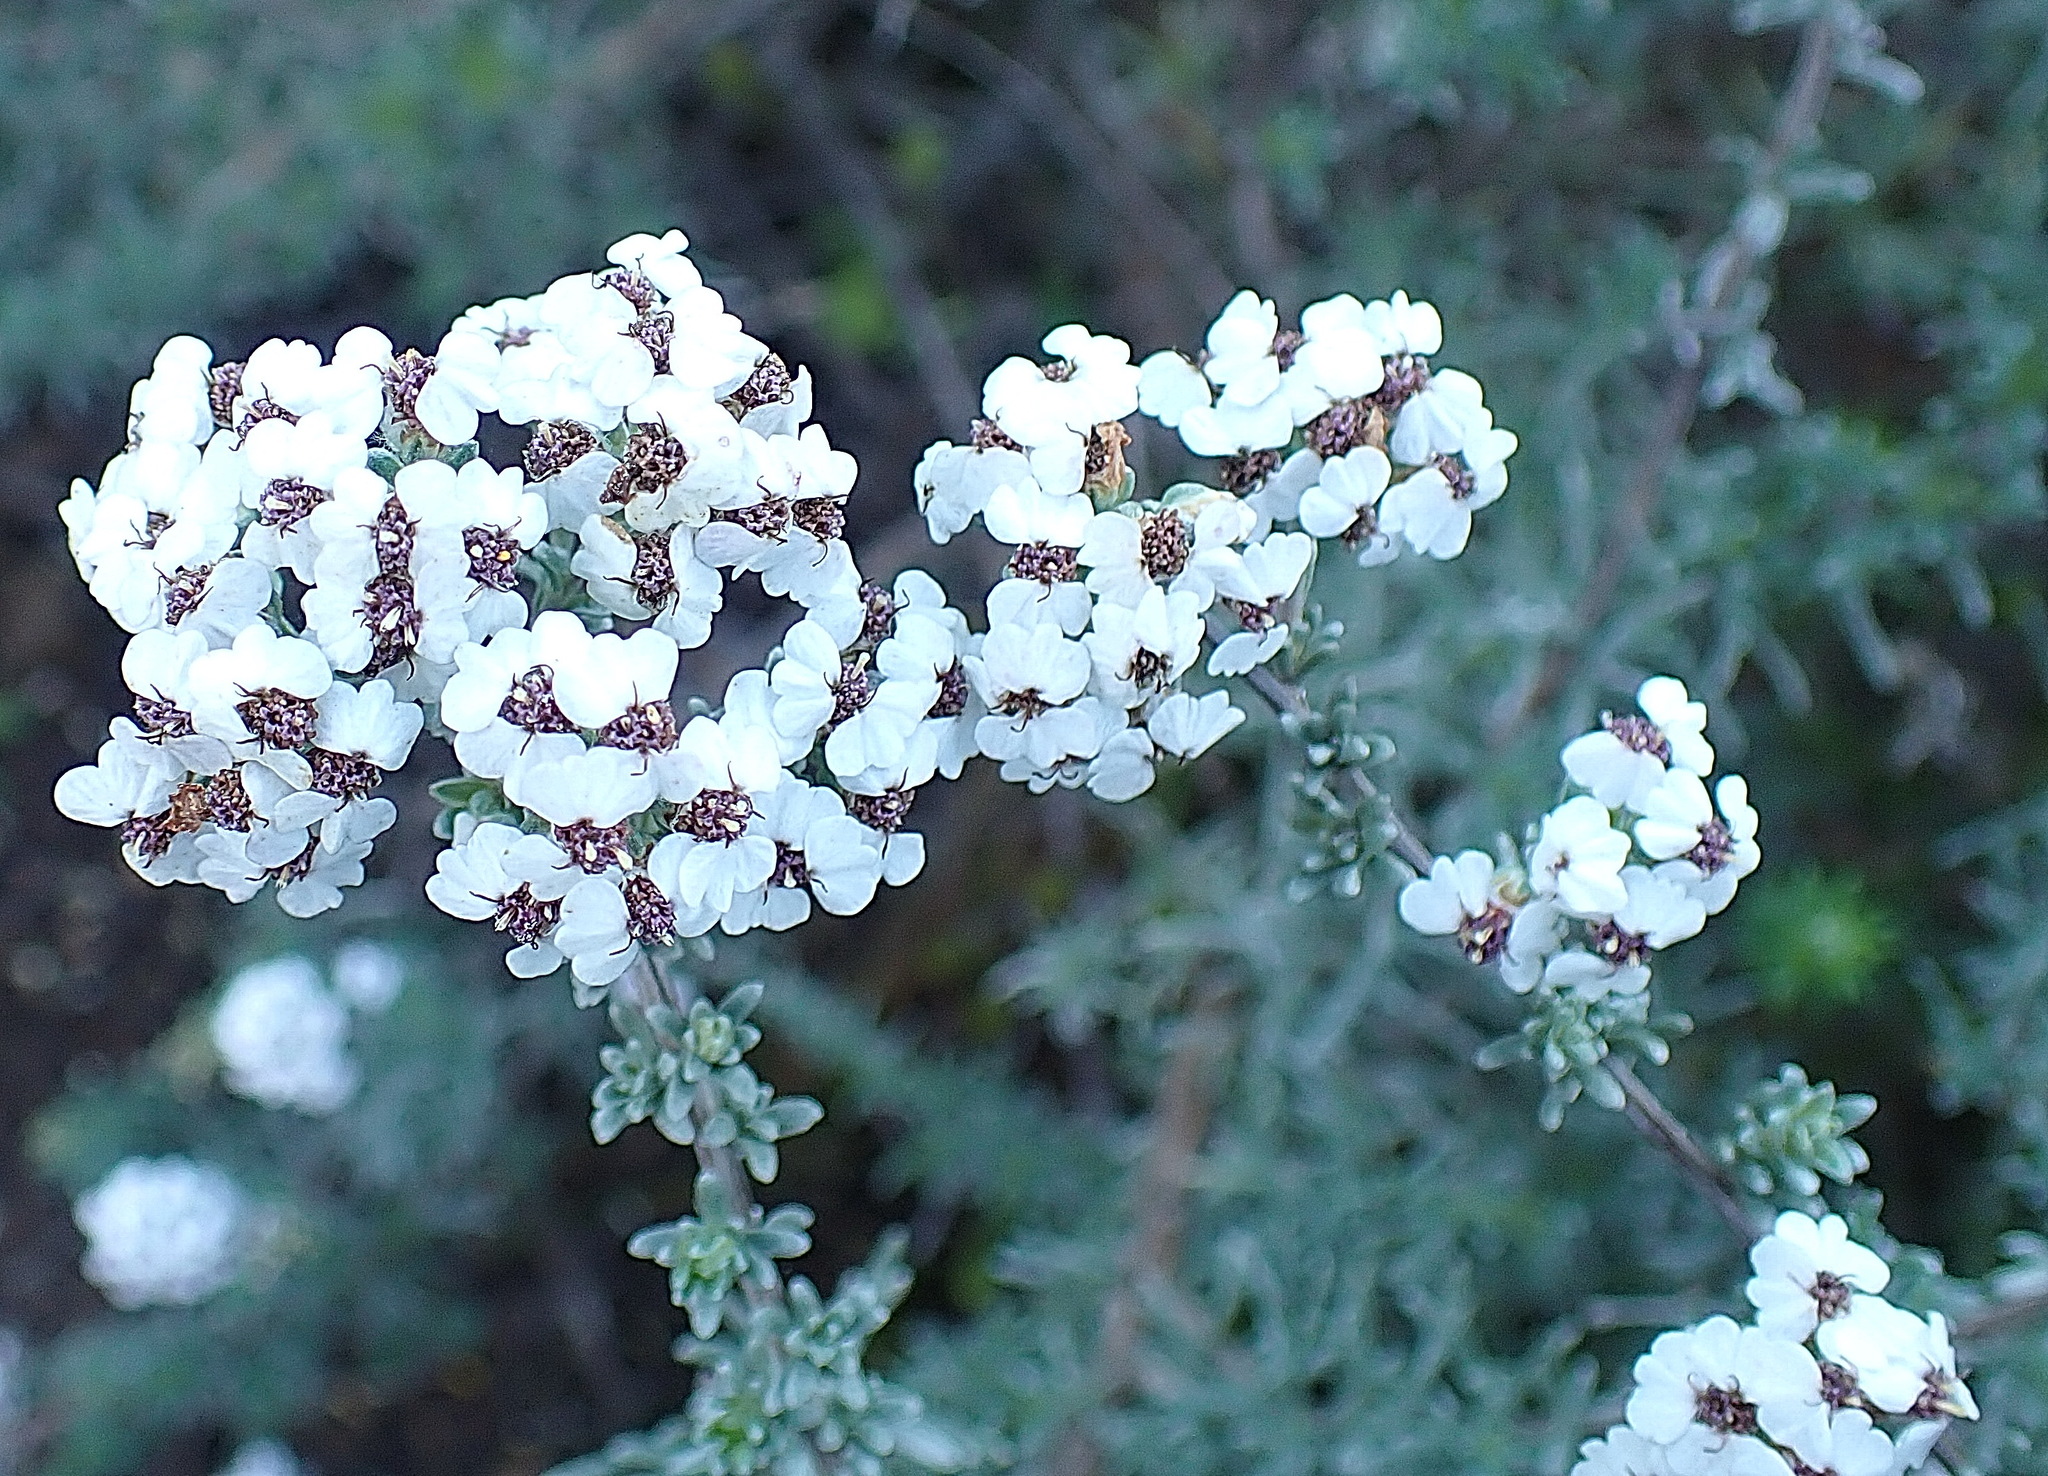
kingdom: Plantae
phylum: Tracheophyta
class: Magnoliopsida
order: Asterales
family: Asteraceae
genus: Eriocephalus
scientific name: Eriocephalus africanus
